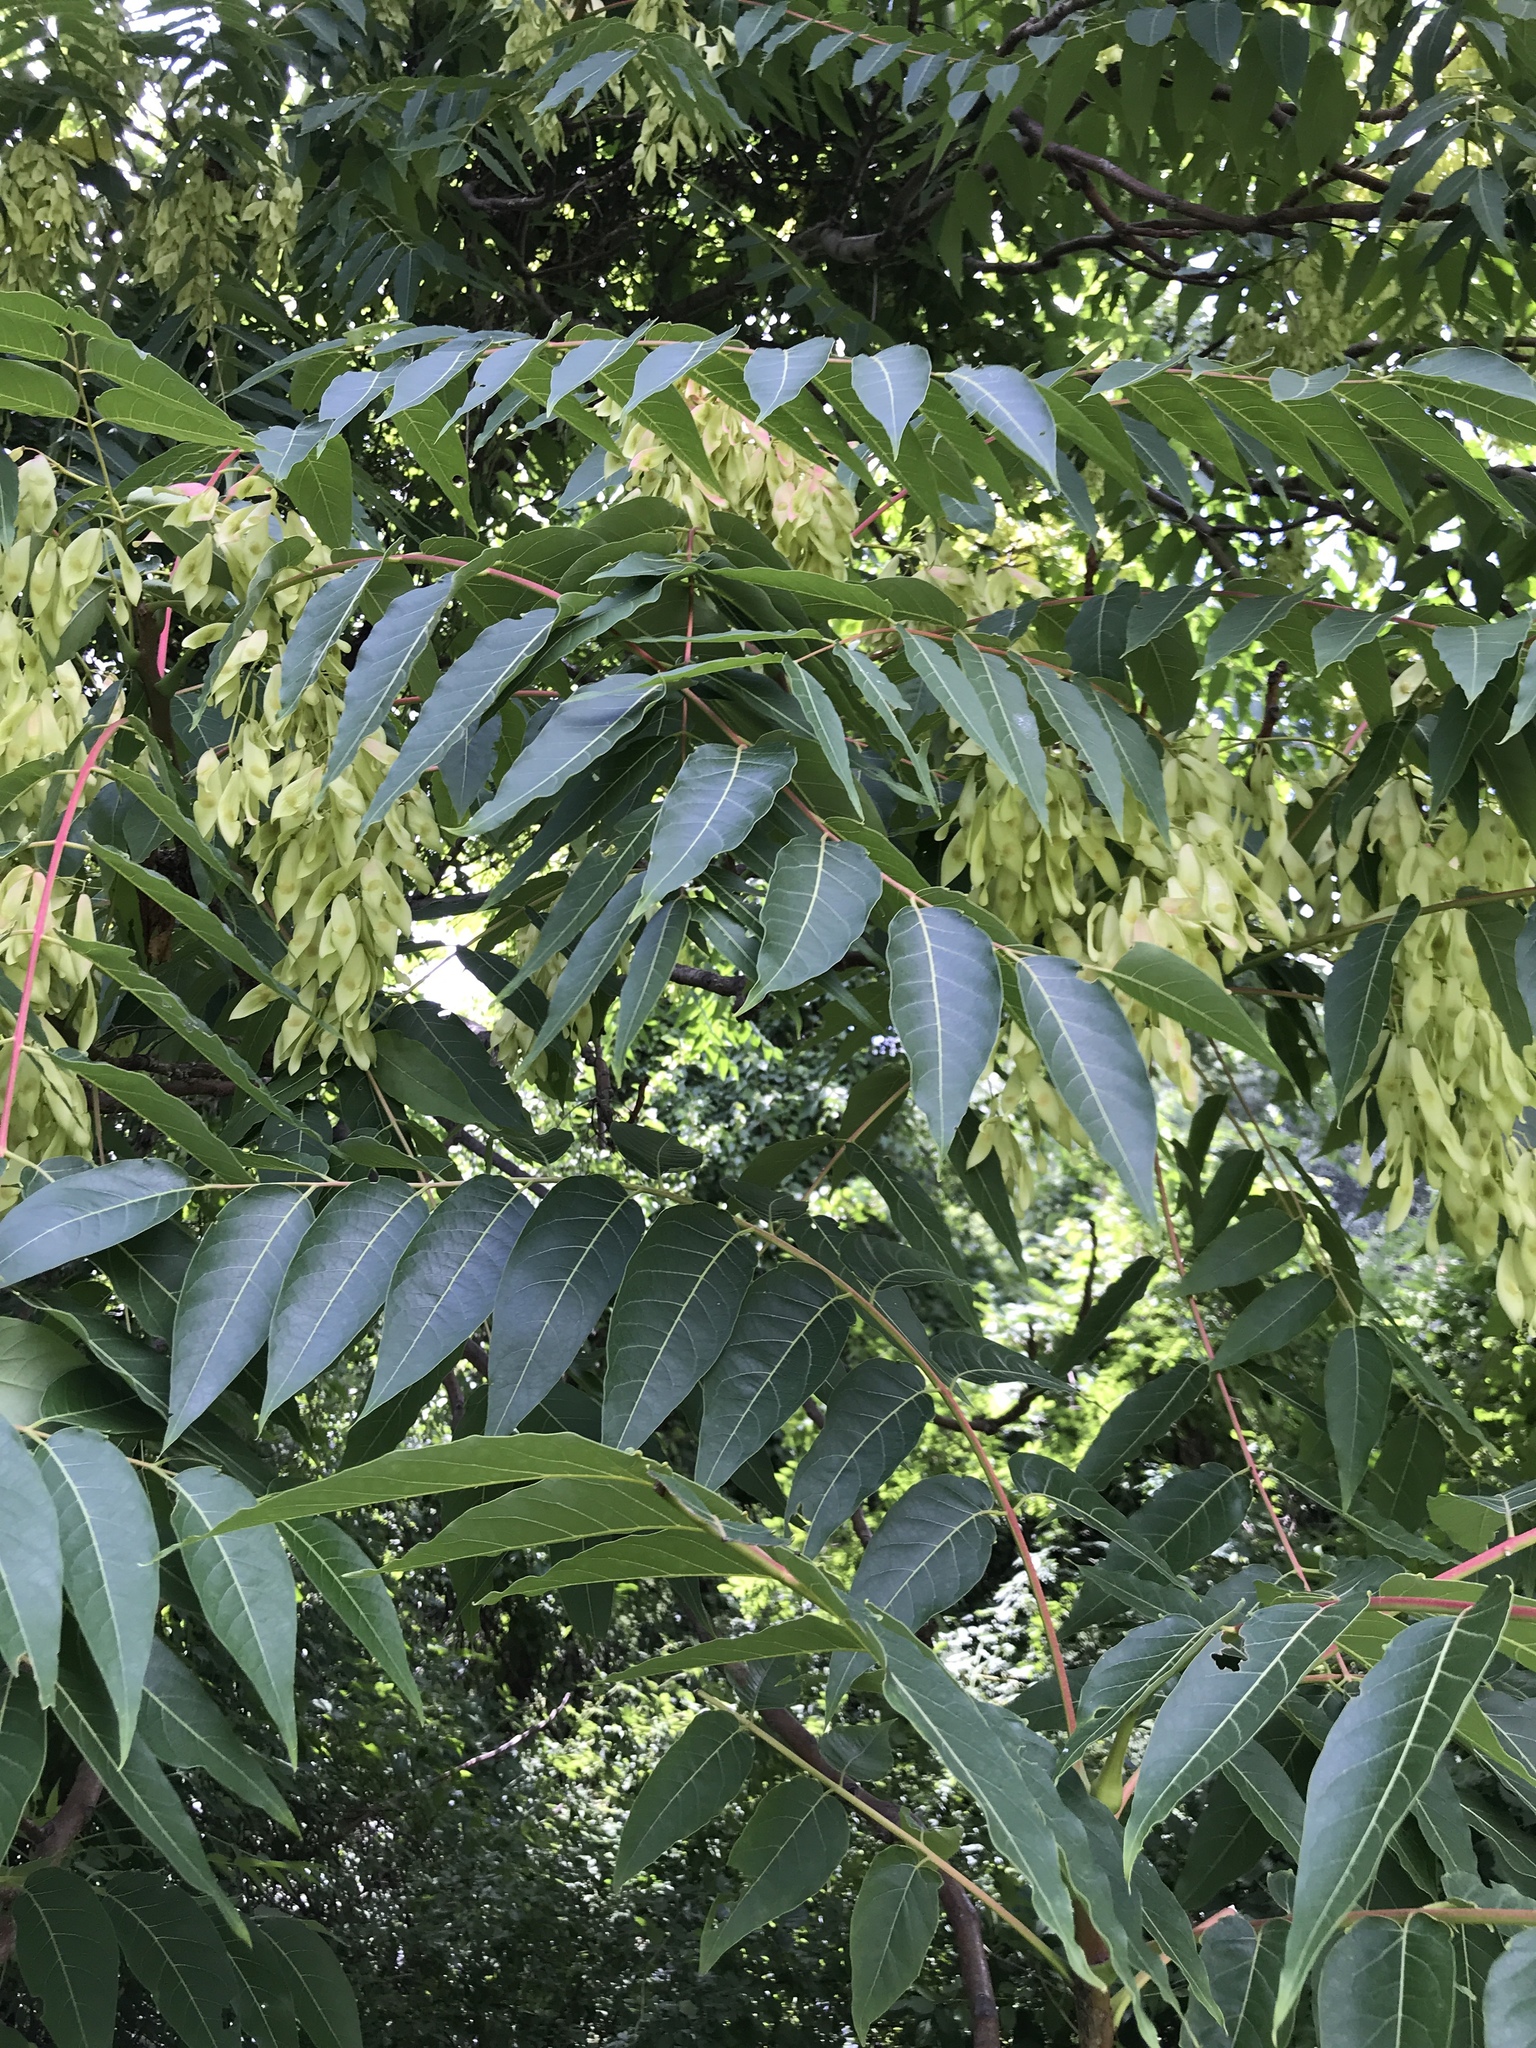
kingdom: Plantae
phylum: Tracheophyta
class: Magnoliopsida
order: Sapindales
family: Simaroubaceae
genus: Ailanthus
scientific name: Ailanthus altissima
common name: Tree-of-heaven
